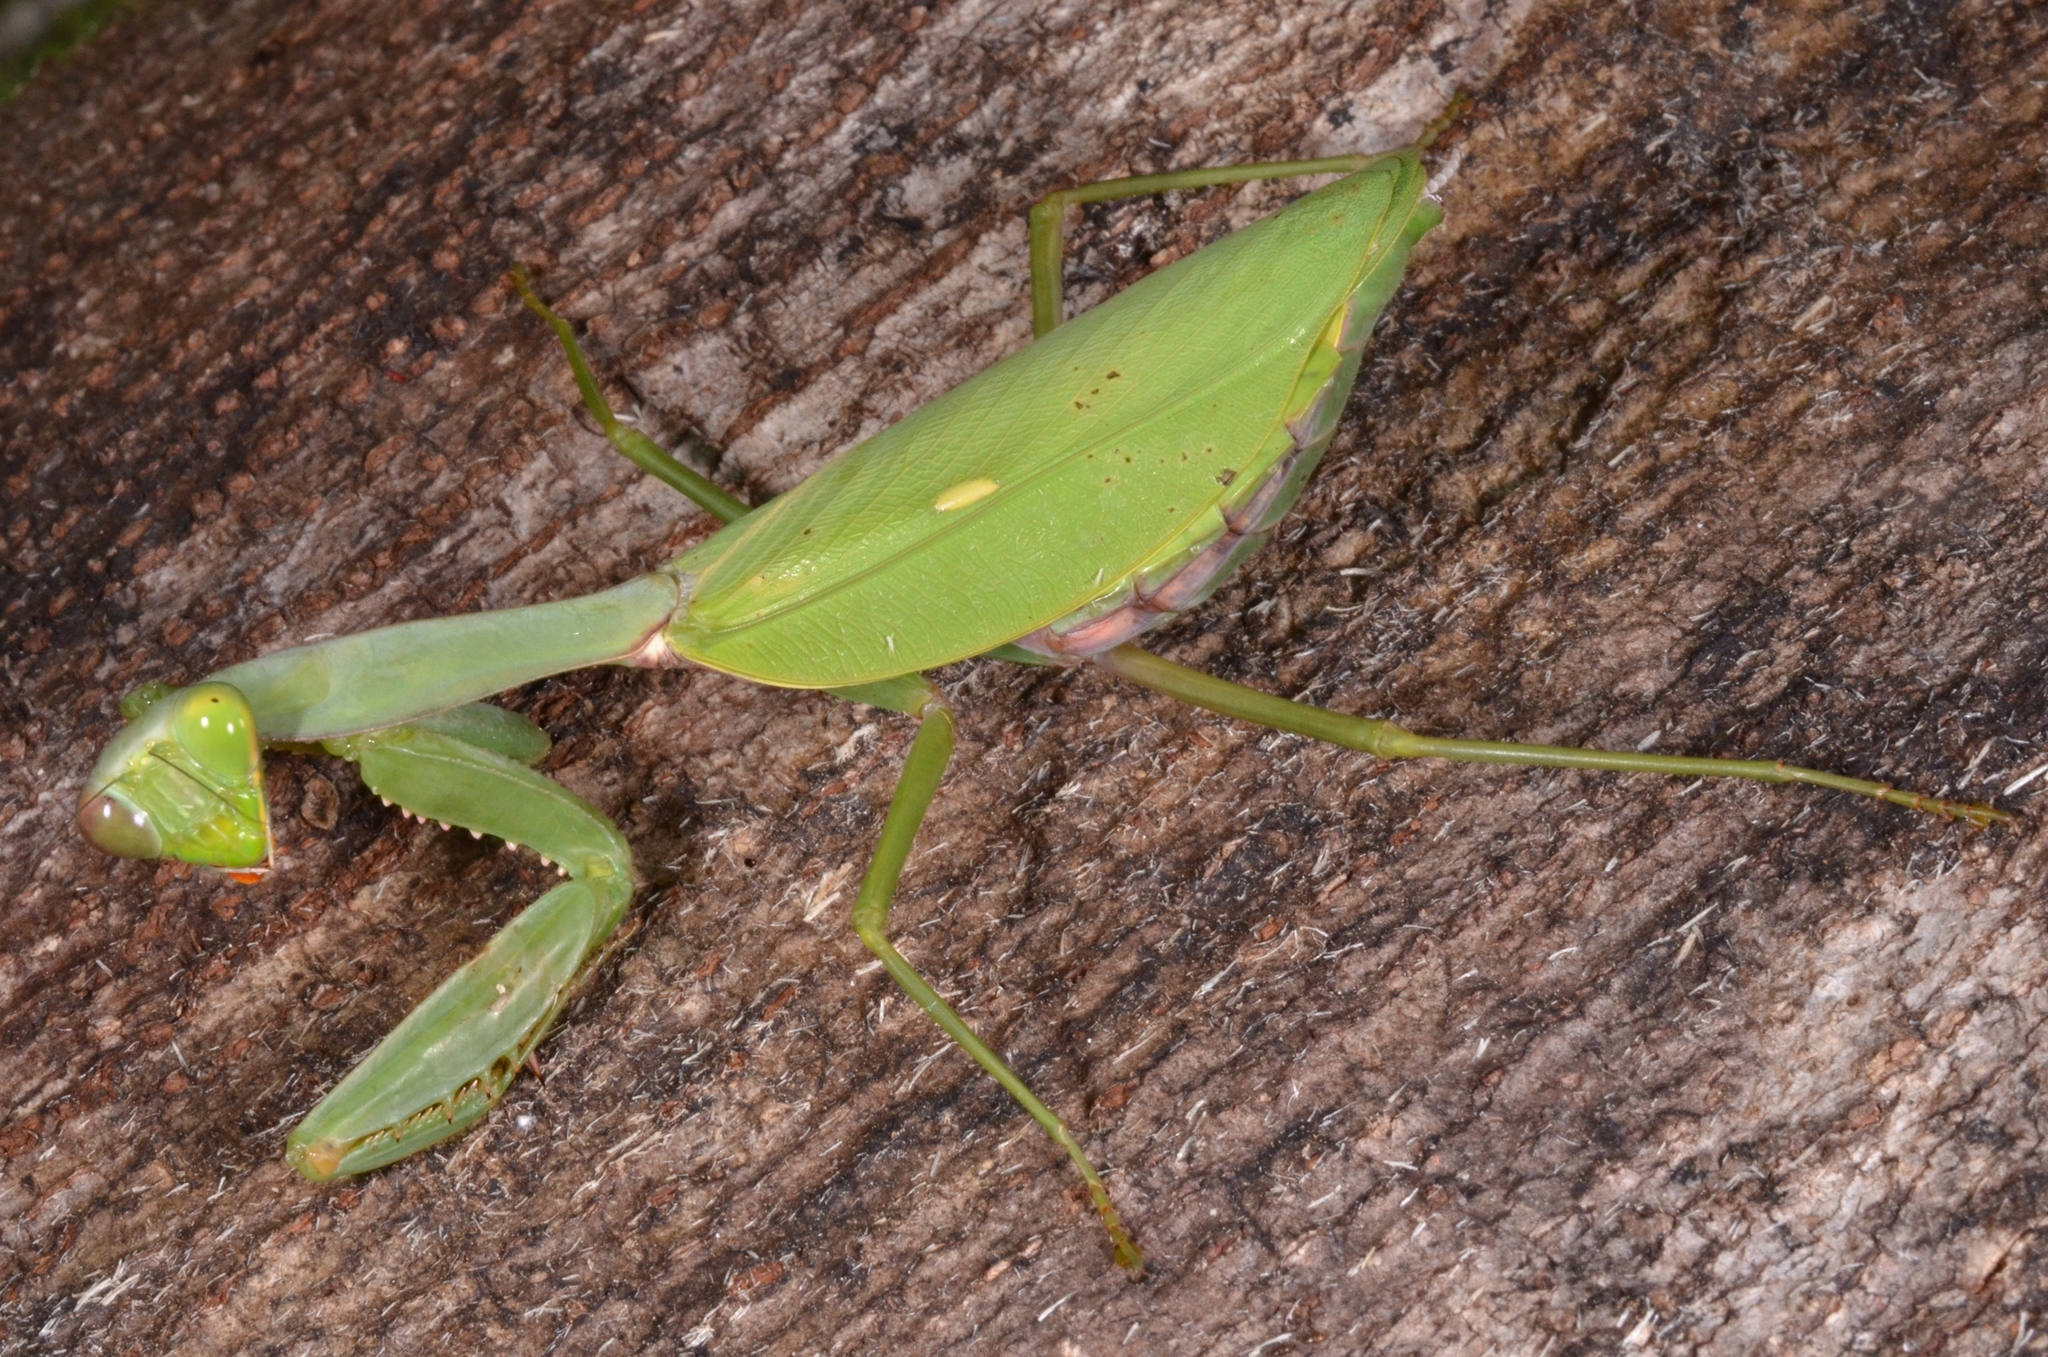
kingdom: Animalia
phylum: Arthropoda
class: Insecta
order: Mantodea
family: Mantidae
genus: Hierodula
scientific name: Hierodula longa
